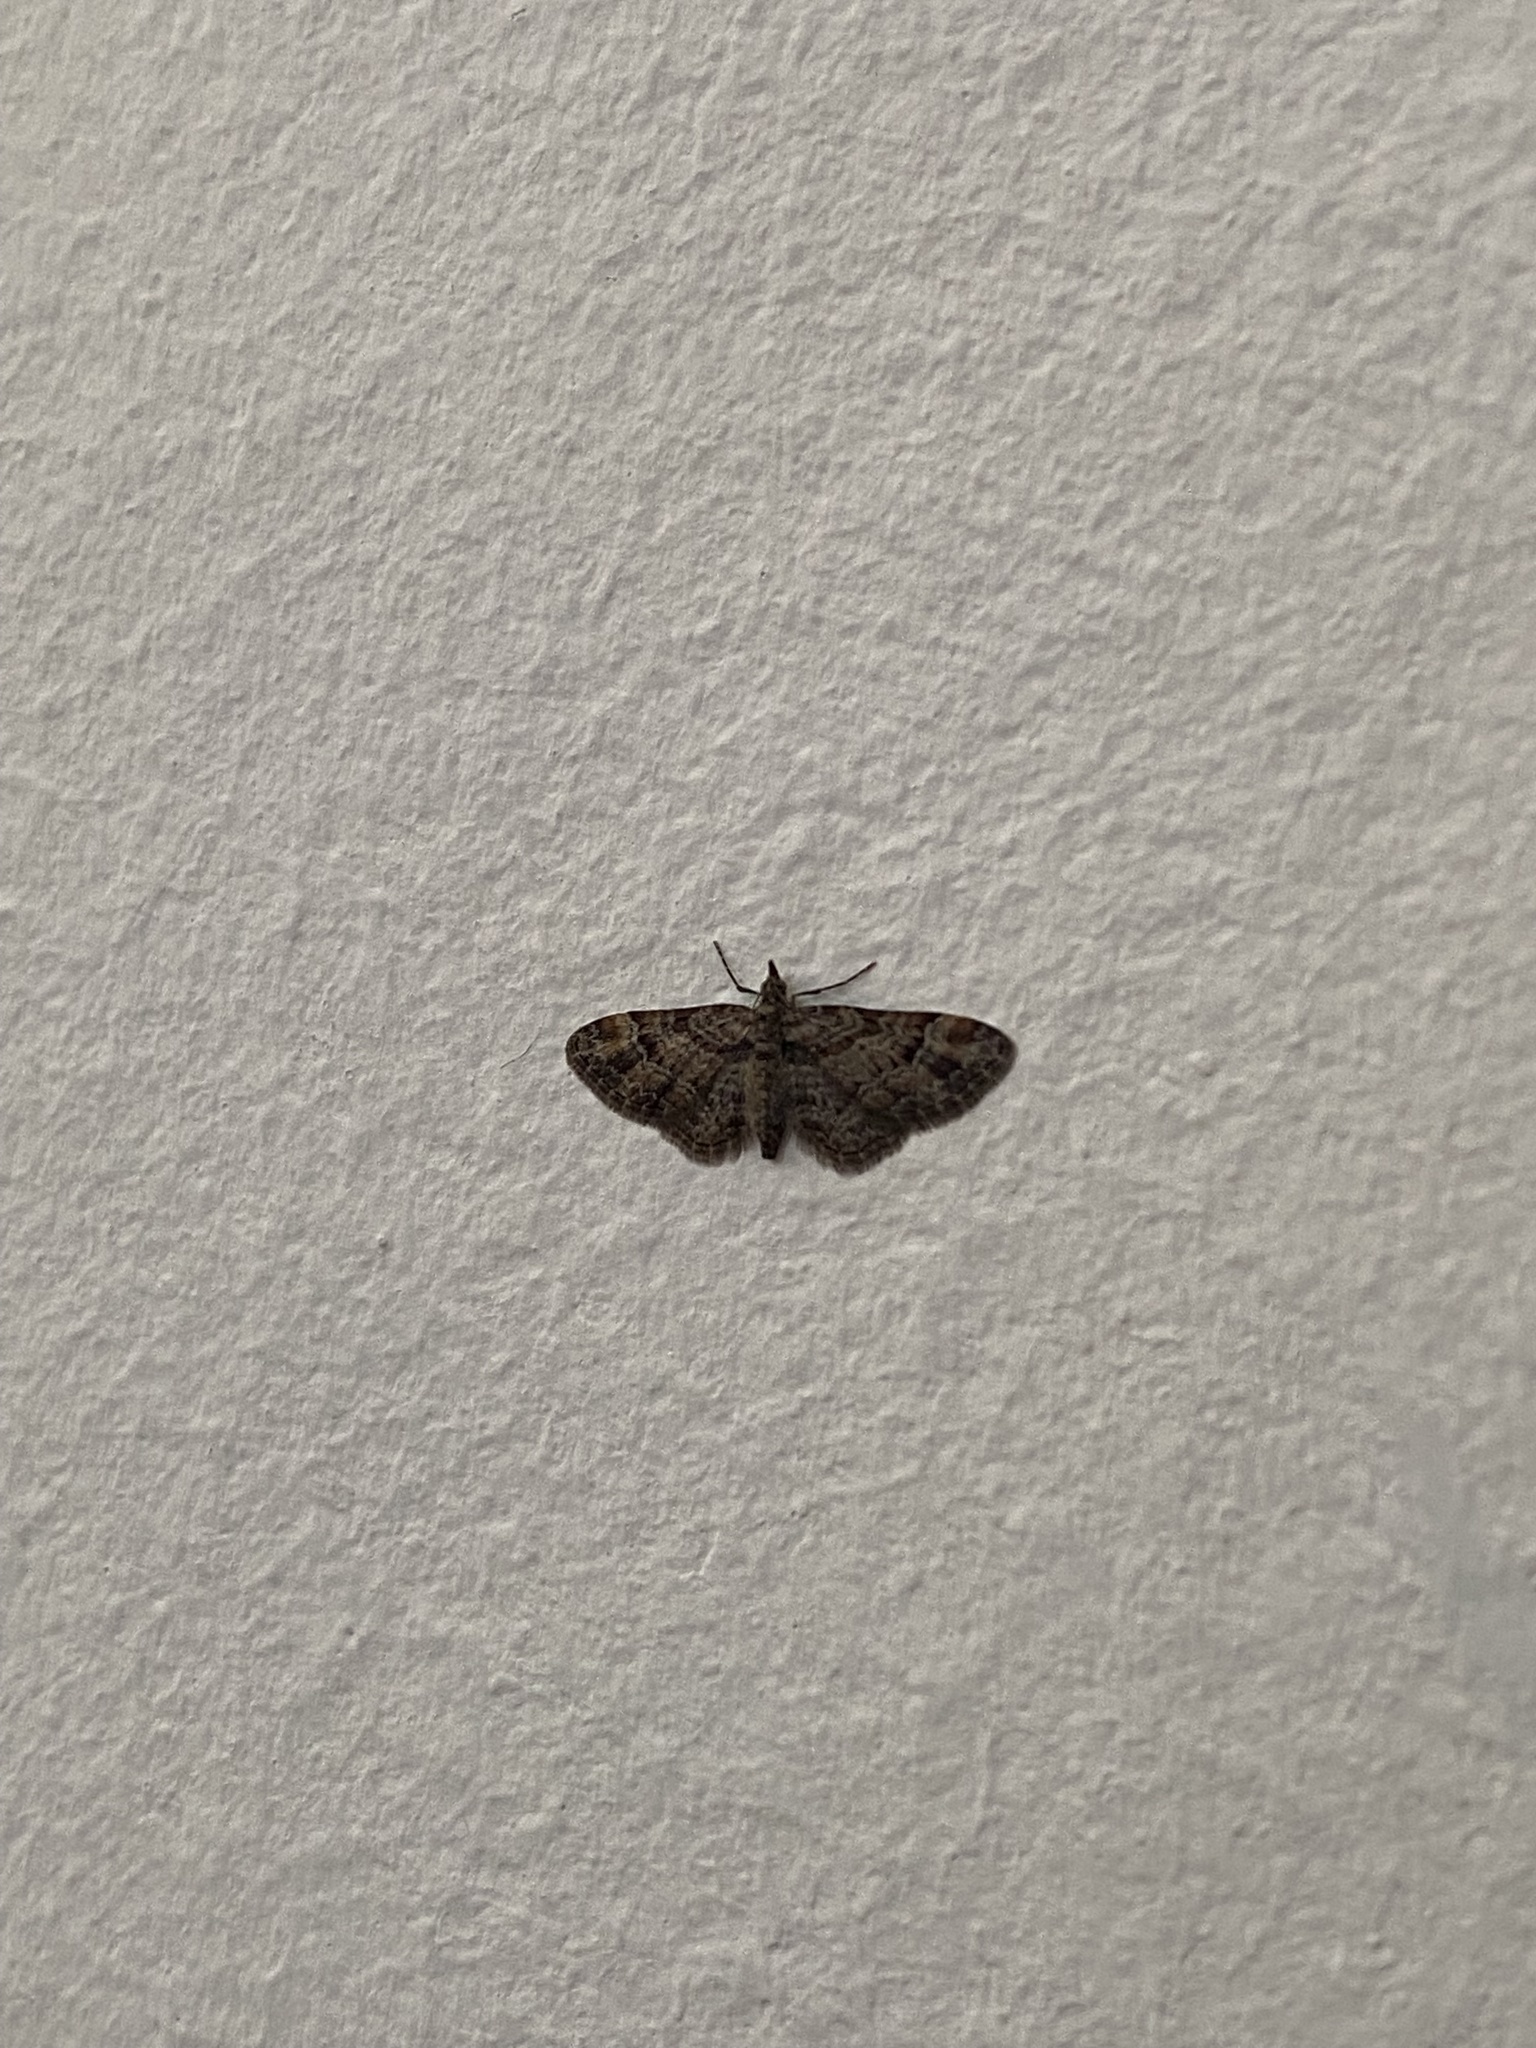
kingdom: Animalia
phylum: Arthropoda
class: Insecta
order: Lepidoptera
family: Geometridae
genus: Gymnoscelis
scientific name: Gymnoscelis rufifasciata
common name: Double-striped pug
